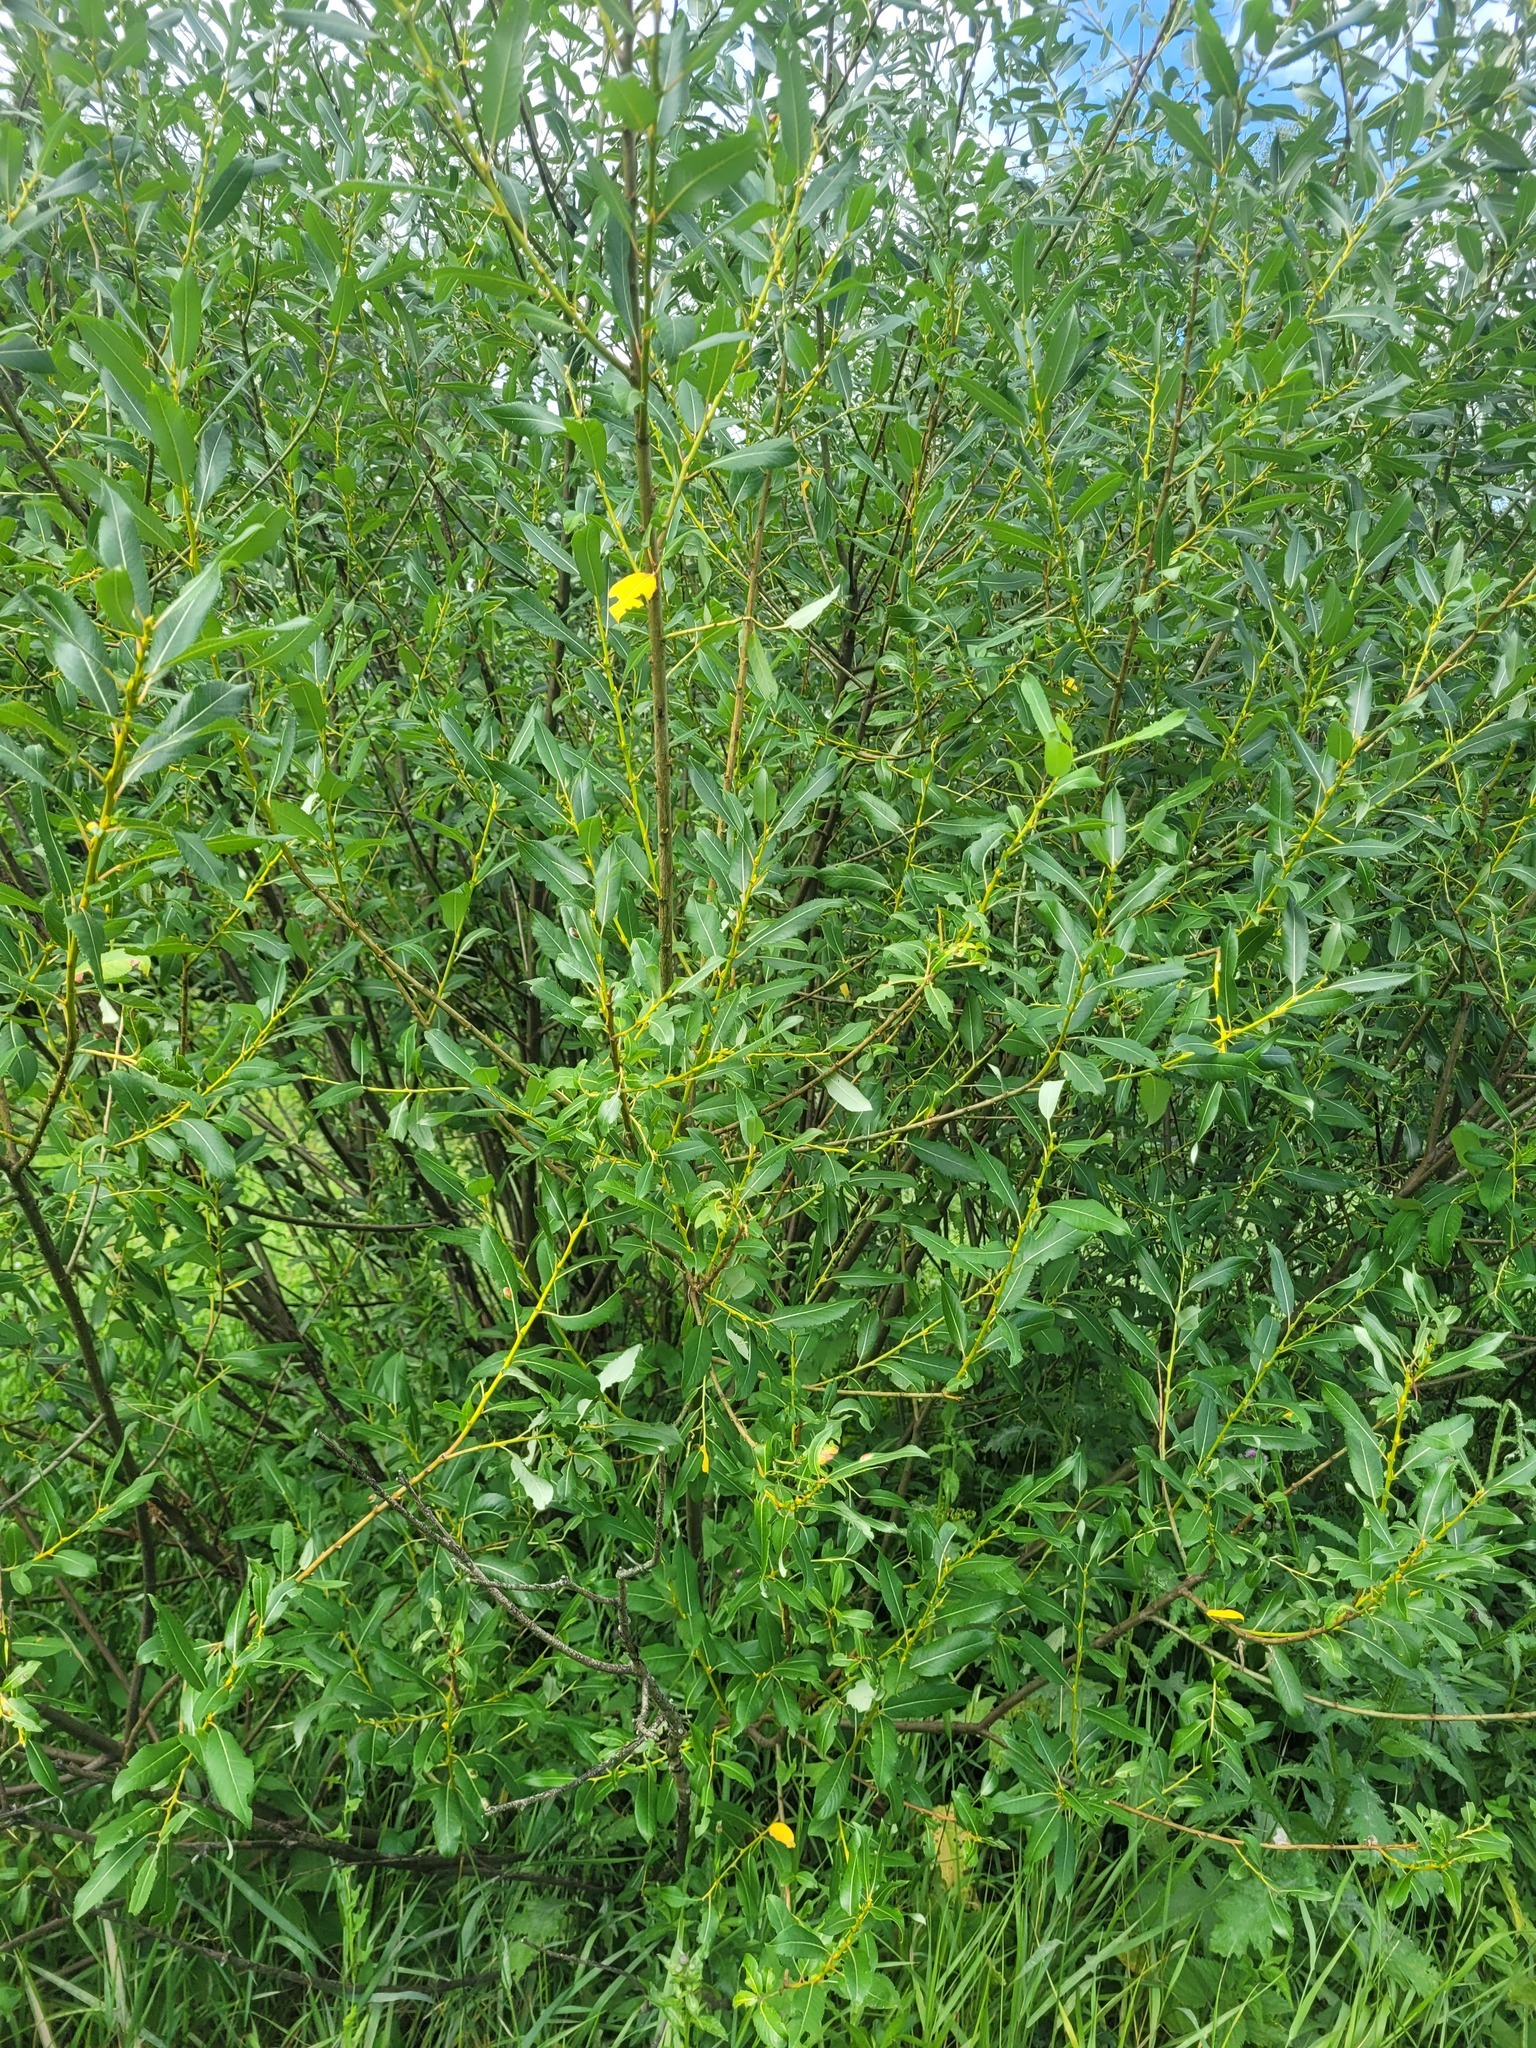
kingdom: Plantae
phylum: Tracheophyta
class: Magnoliopsida
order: Malpighiales
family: Salicaceae
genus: Salix
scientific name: Salix triandra
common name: Almond willow
